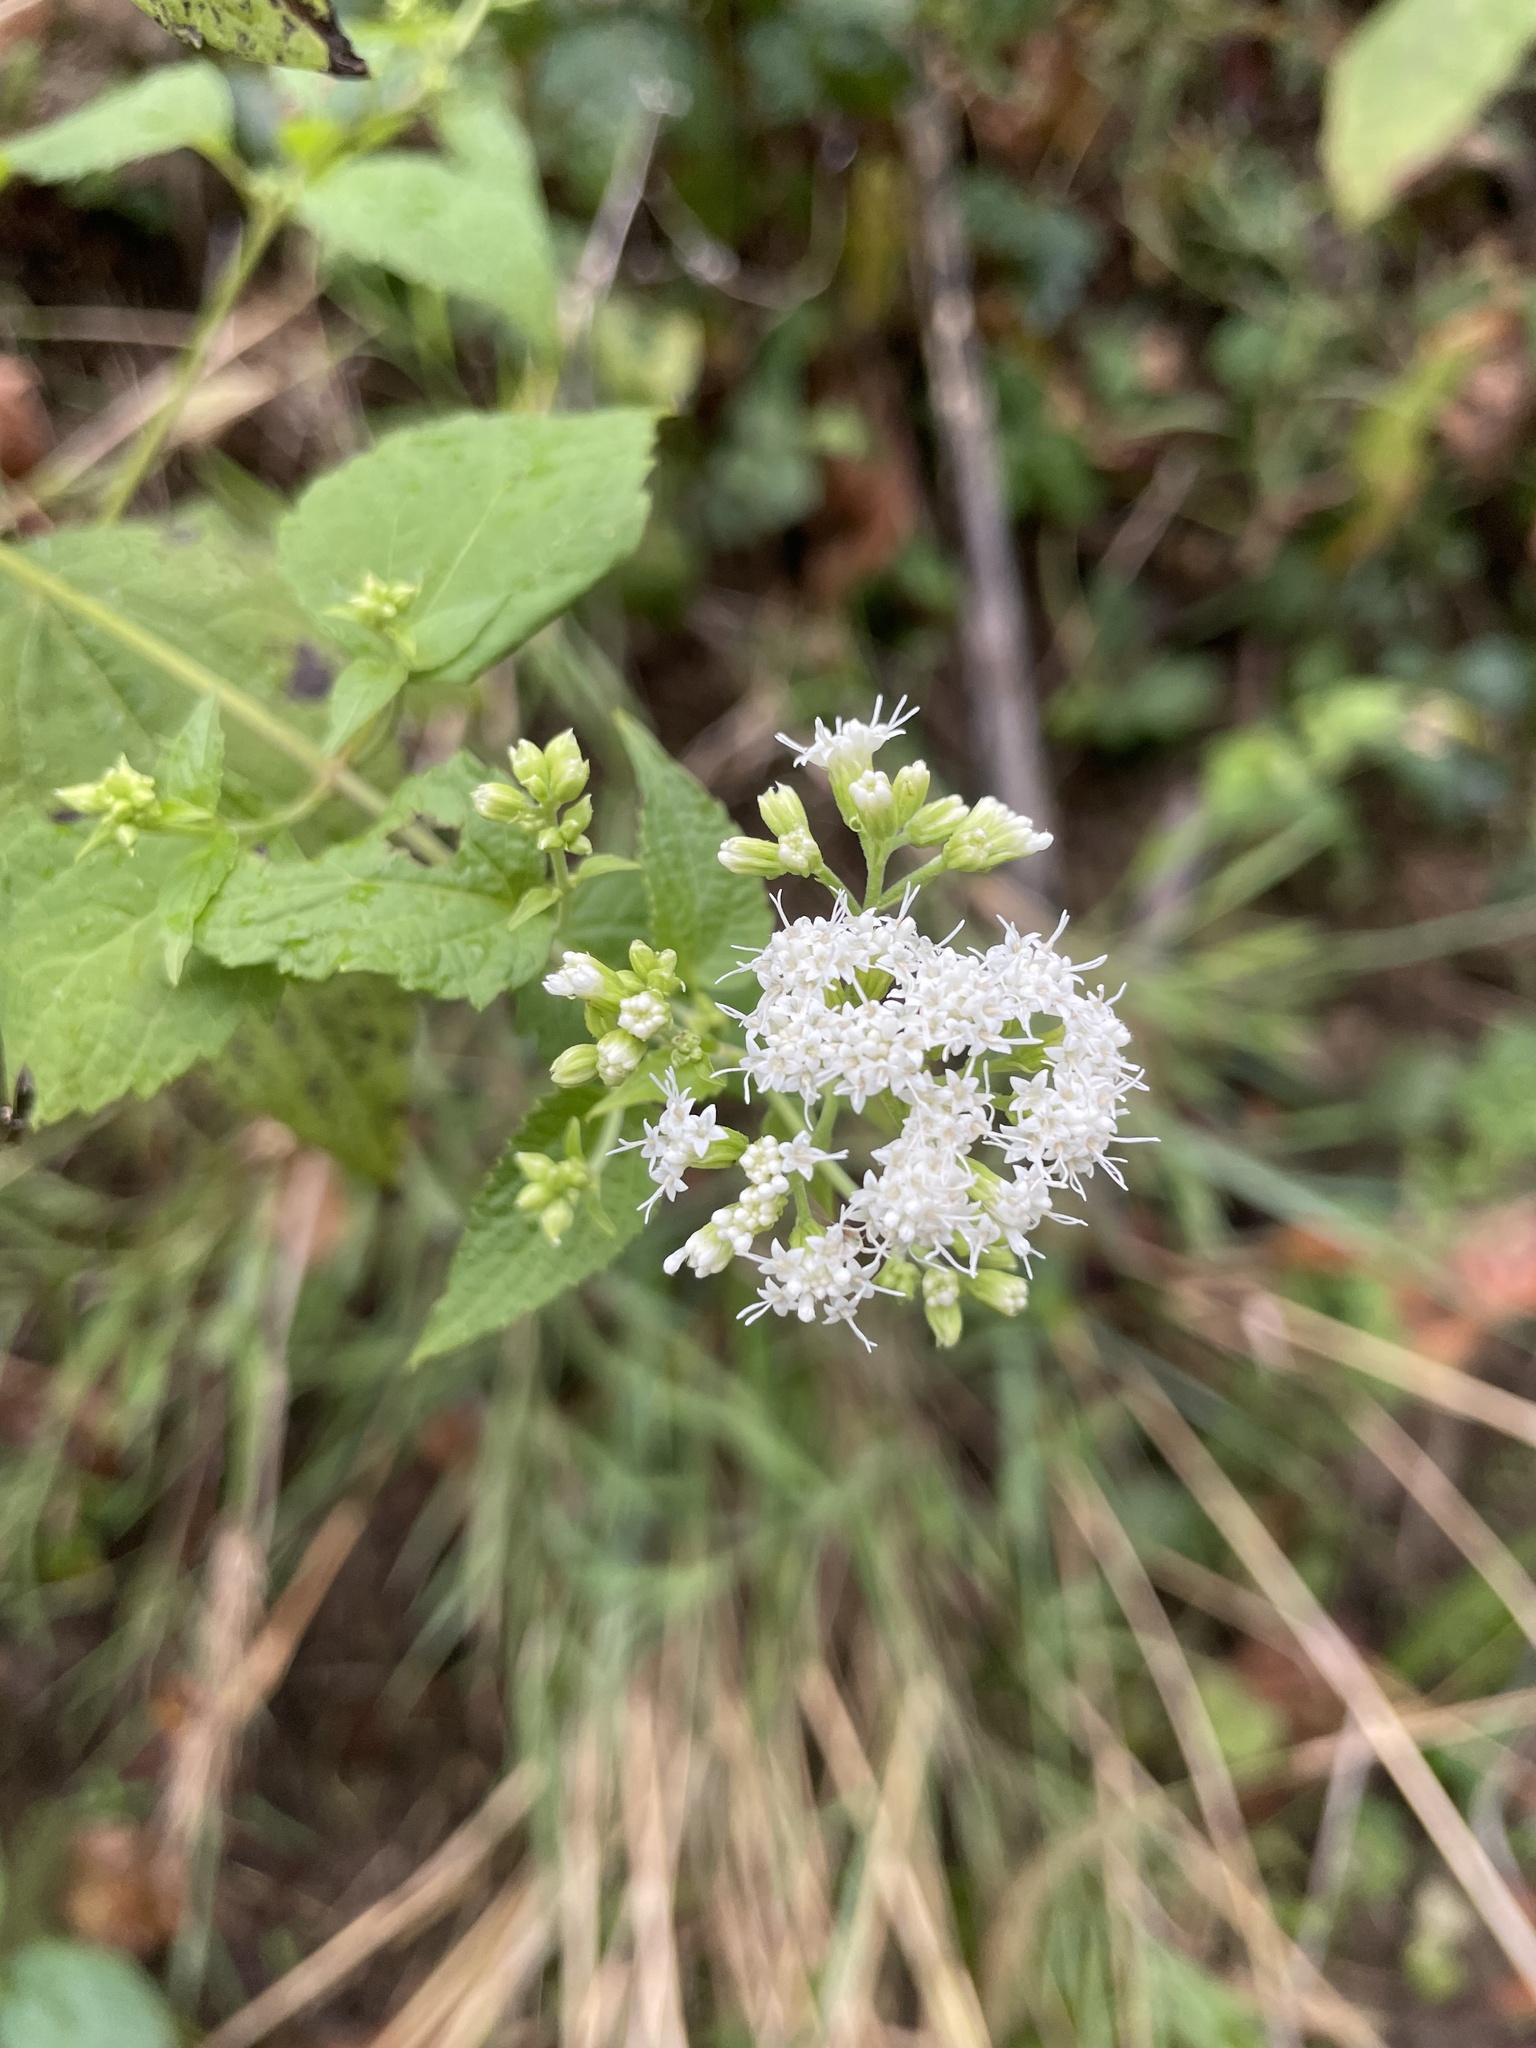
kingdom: Plantae
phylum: Tracheophyta
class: Magnoliopsida
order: Asterales
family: Asteraceae
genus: Ageratina
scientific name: Ageratina altissima
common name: White snakeroot
